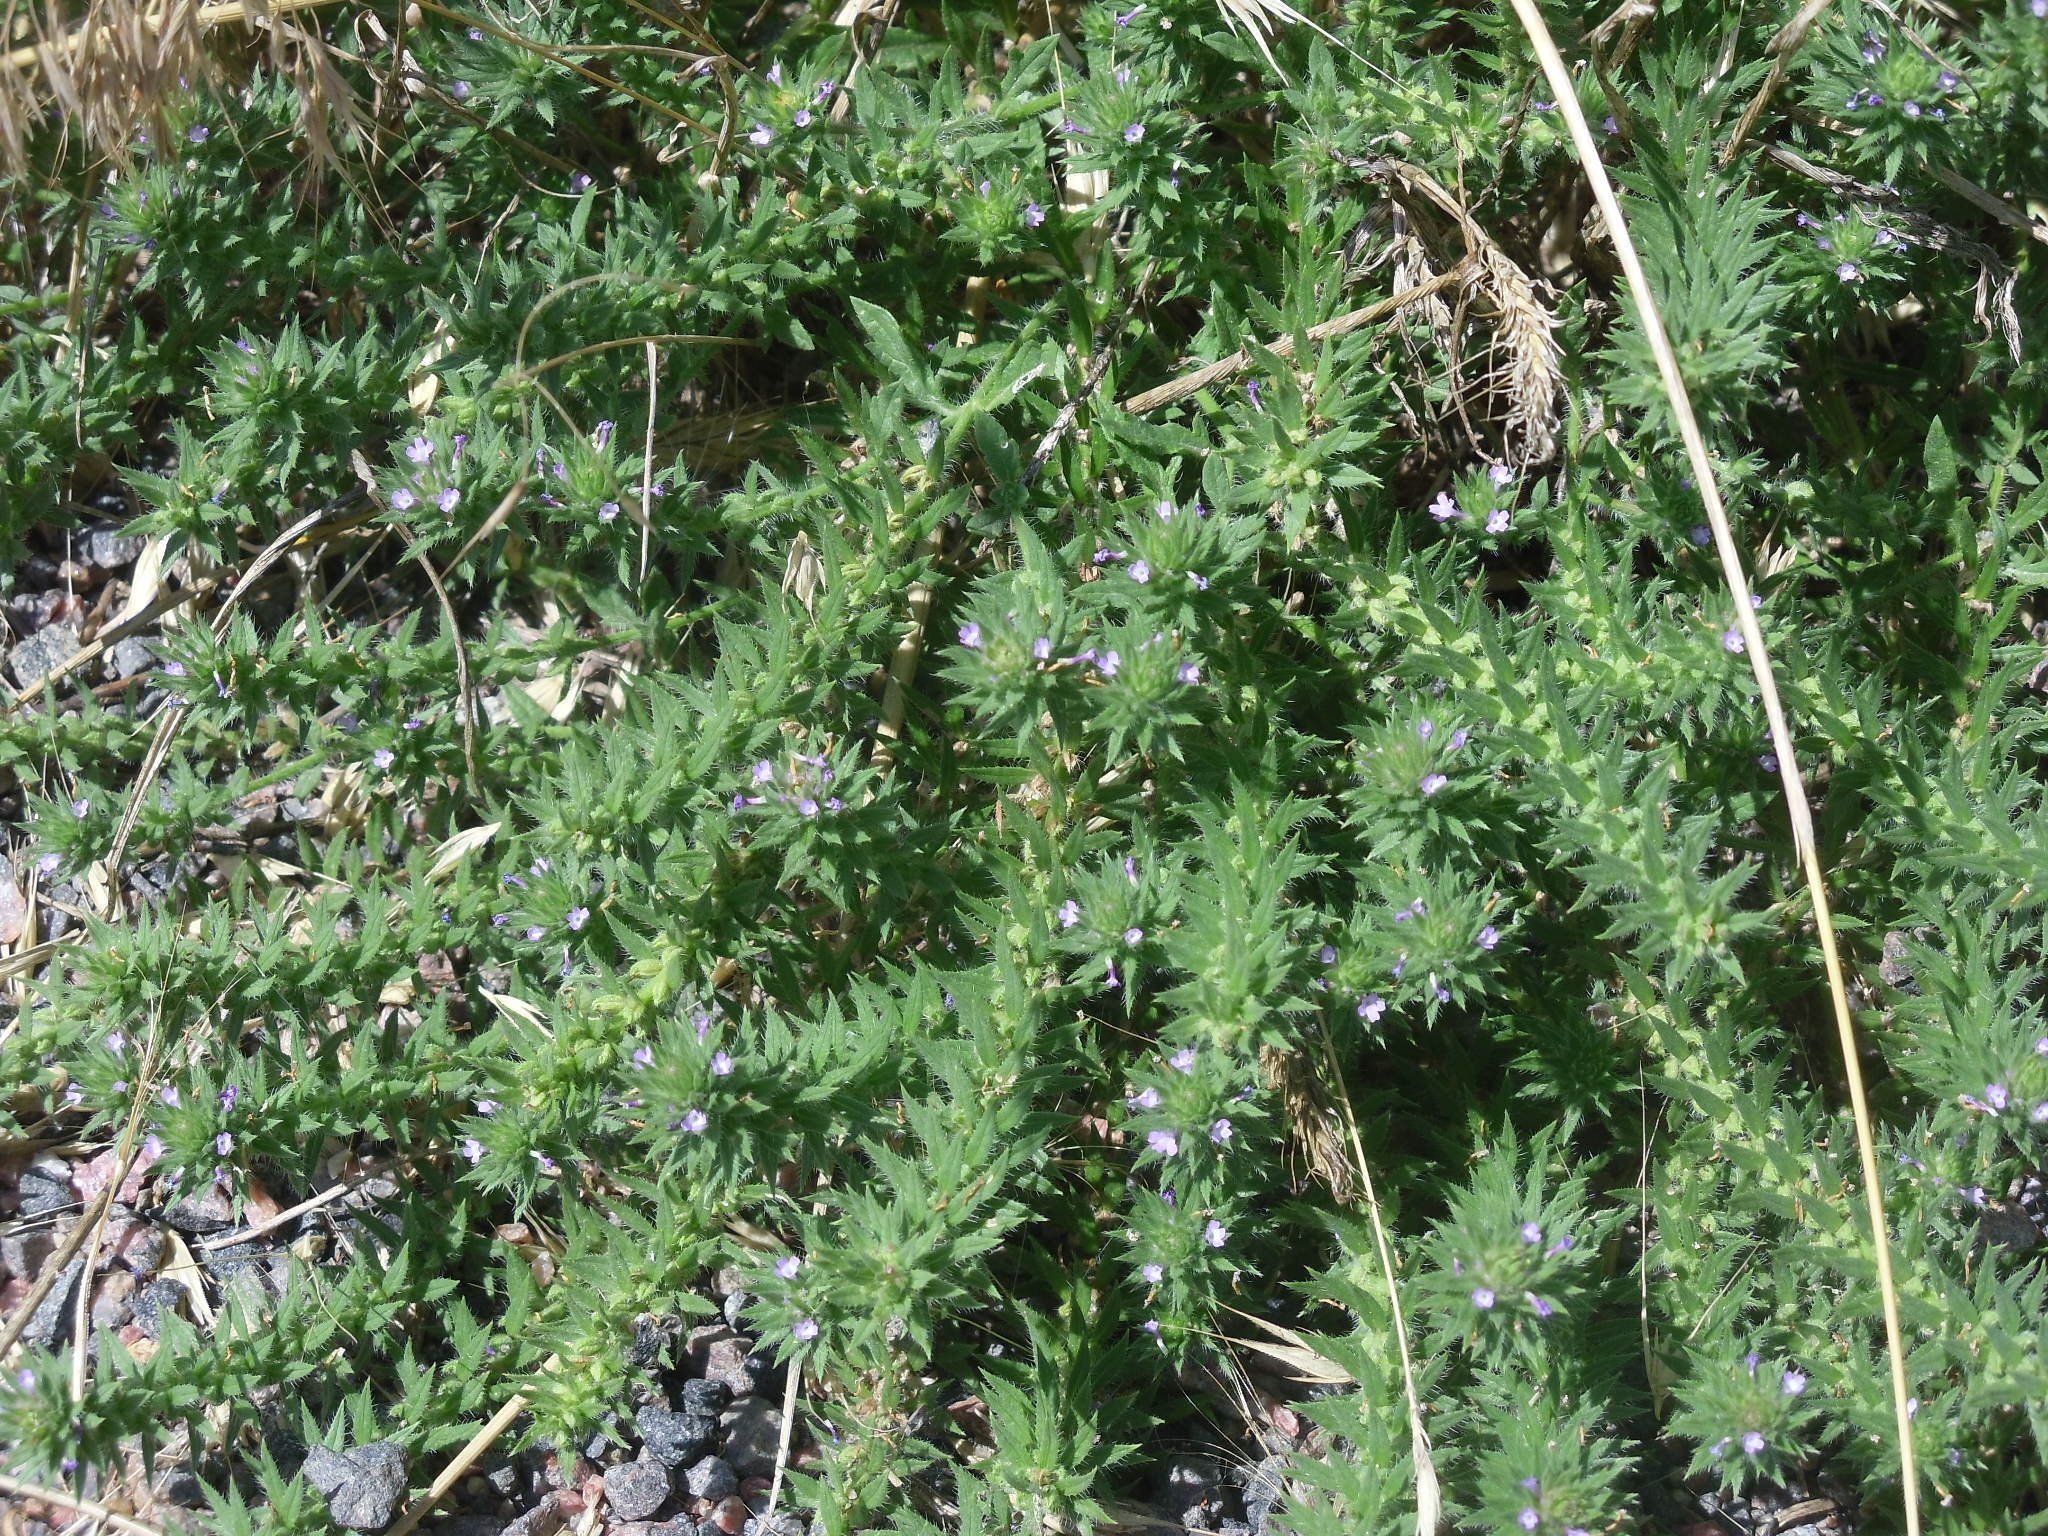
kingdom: Plantae
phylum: Tracheophyta
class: Magnoliopsida
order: Lamiales
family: Verbenaceae
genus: Verbena
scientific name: Verbena bracteata
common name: Bracted vervain
